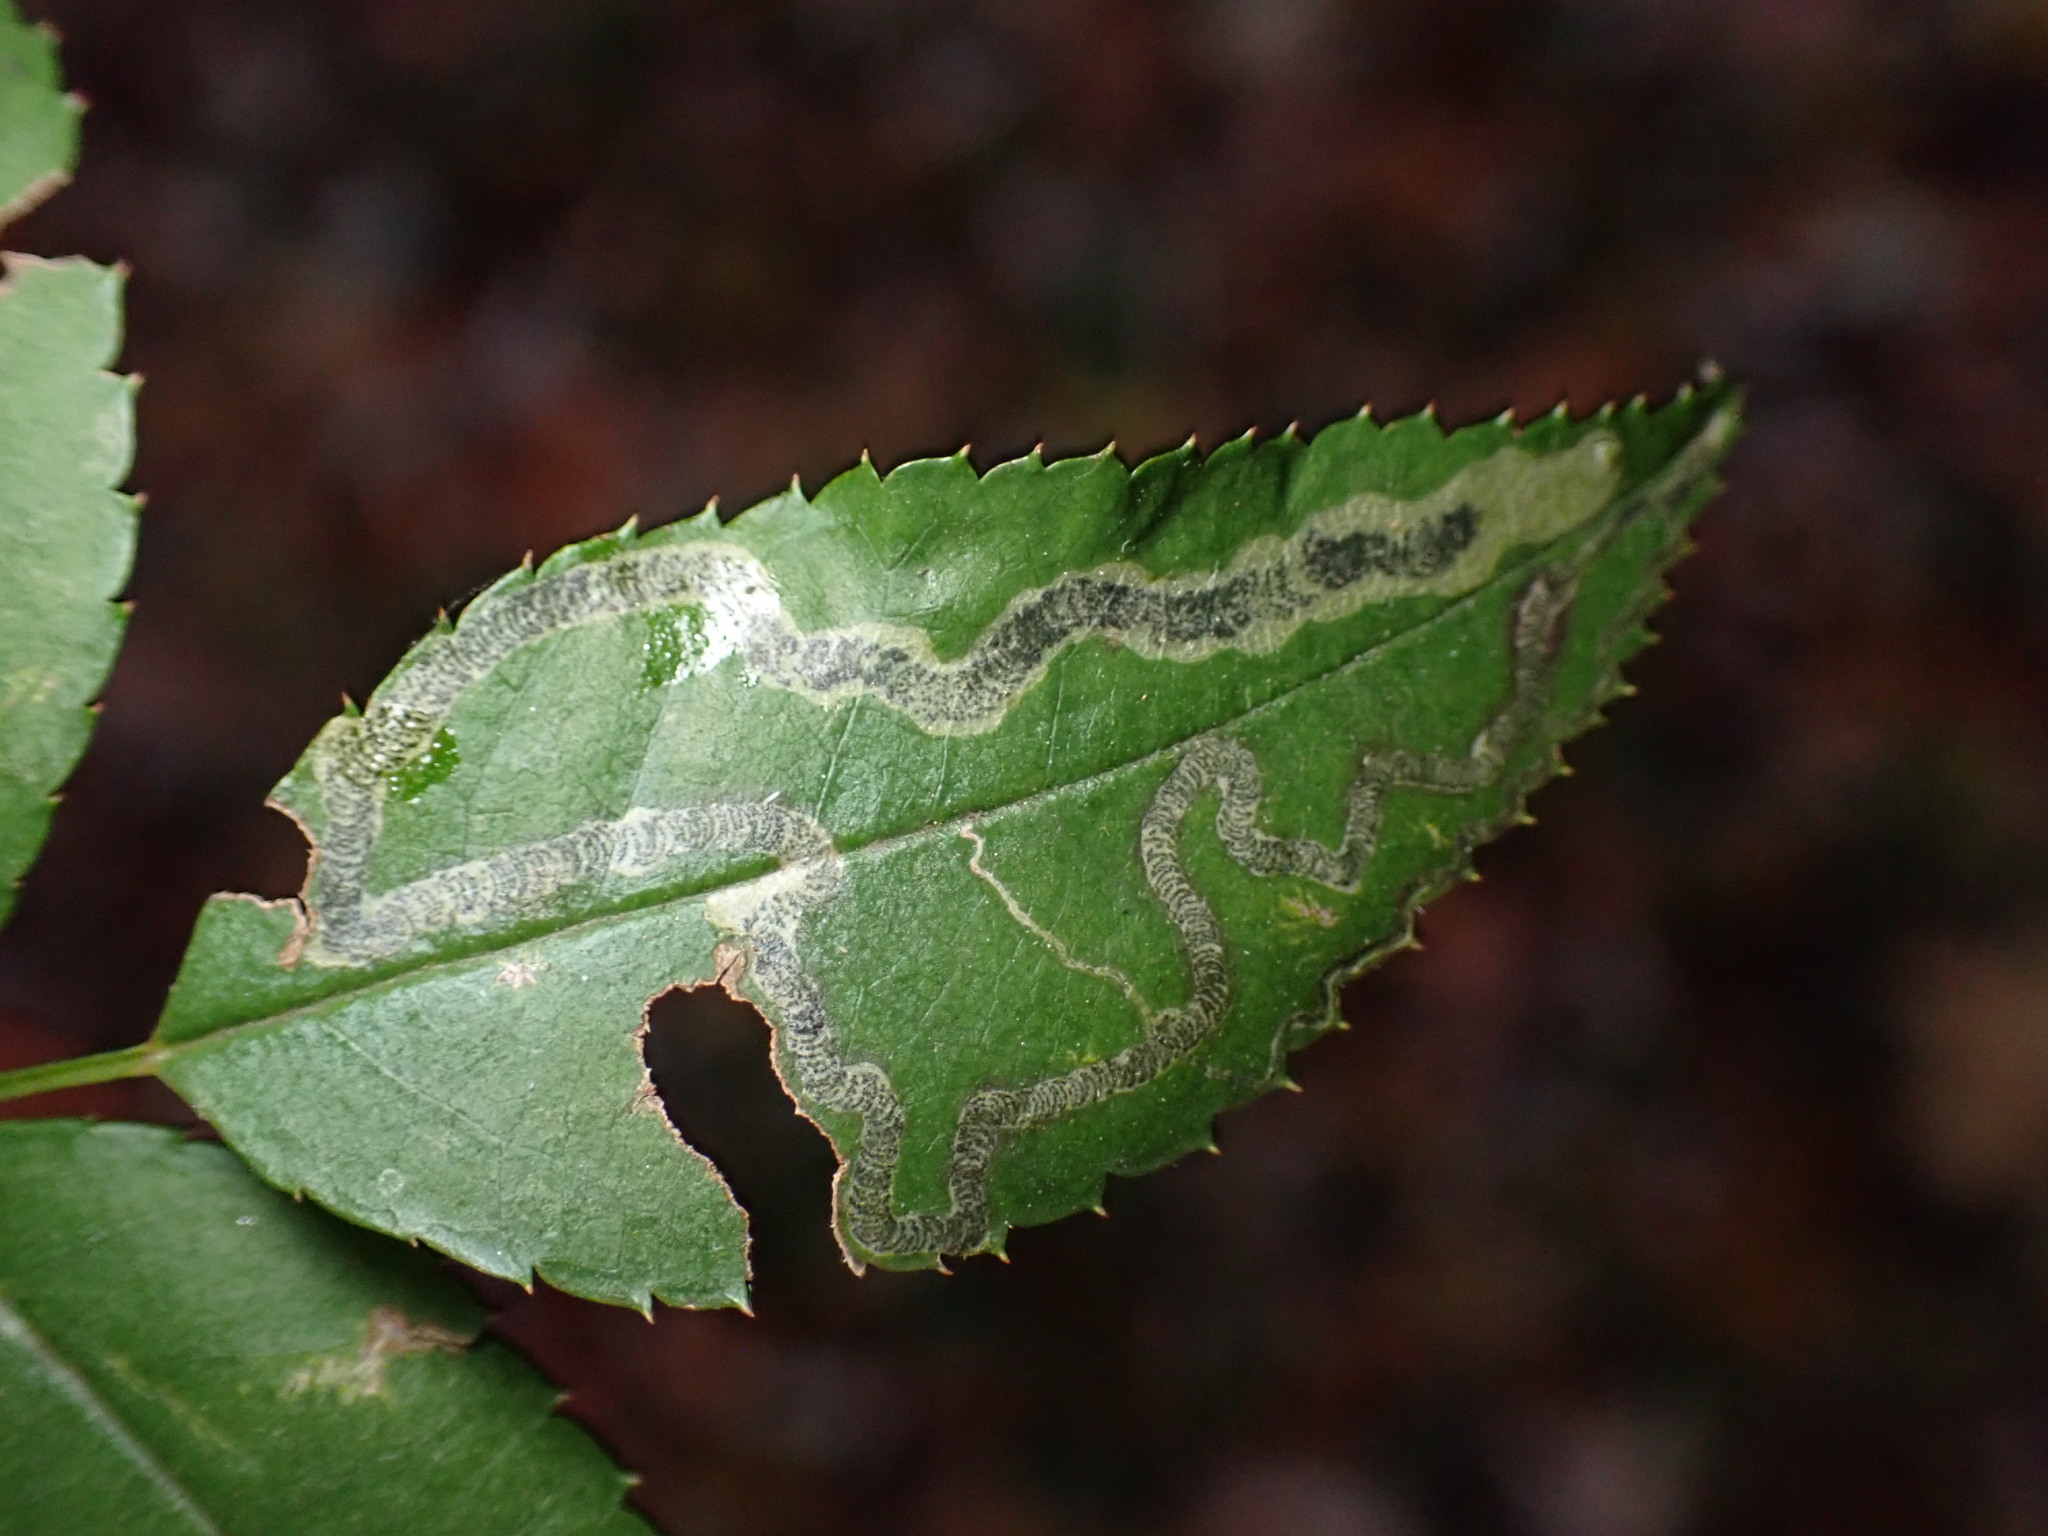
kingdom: Animalia
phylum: Arthropoda
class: Insecta
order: Lepidoptera
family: Nepticulidae
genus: Stigmella
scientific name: Stigmella rosaefoliella
